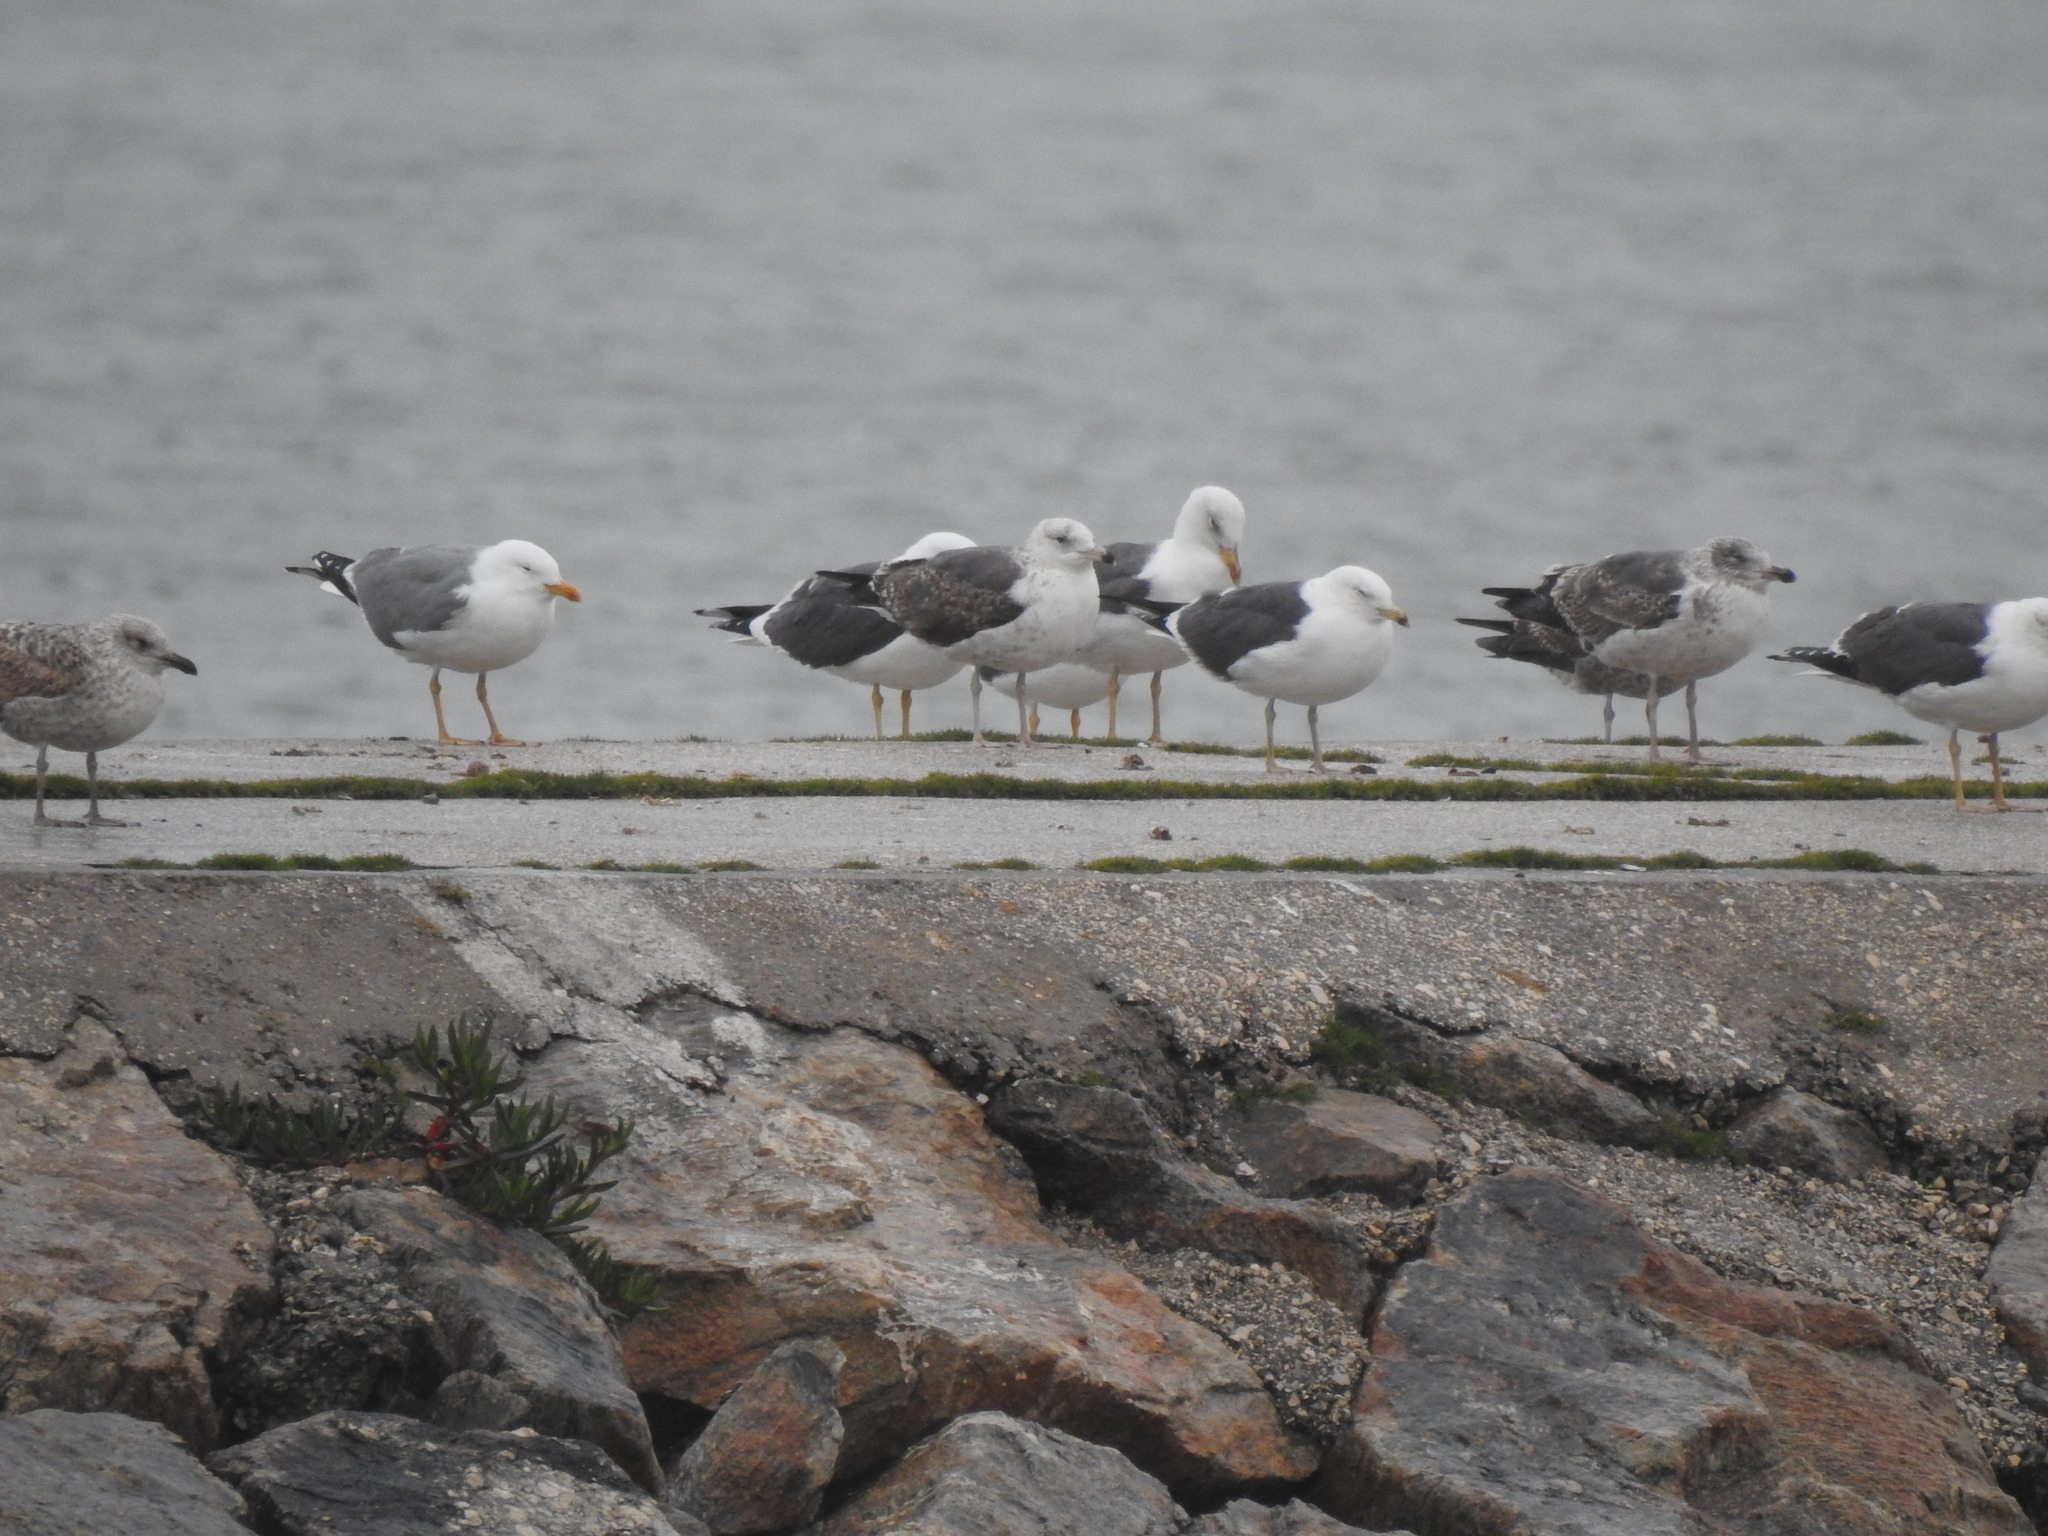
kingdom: Animalia
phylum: Chordata
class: Aves
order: Charadriiformes
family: Laridae
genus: Larus
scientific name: Larus fuscus
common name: Lesser black-backed gull
